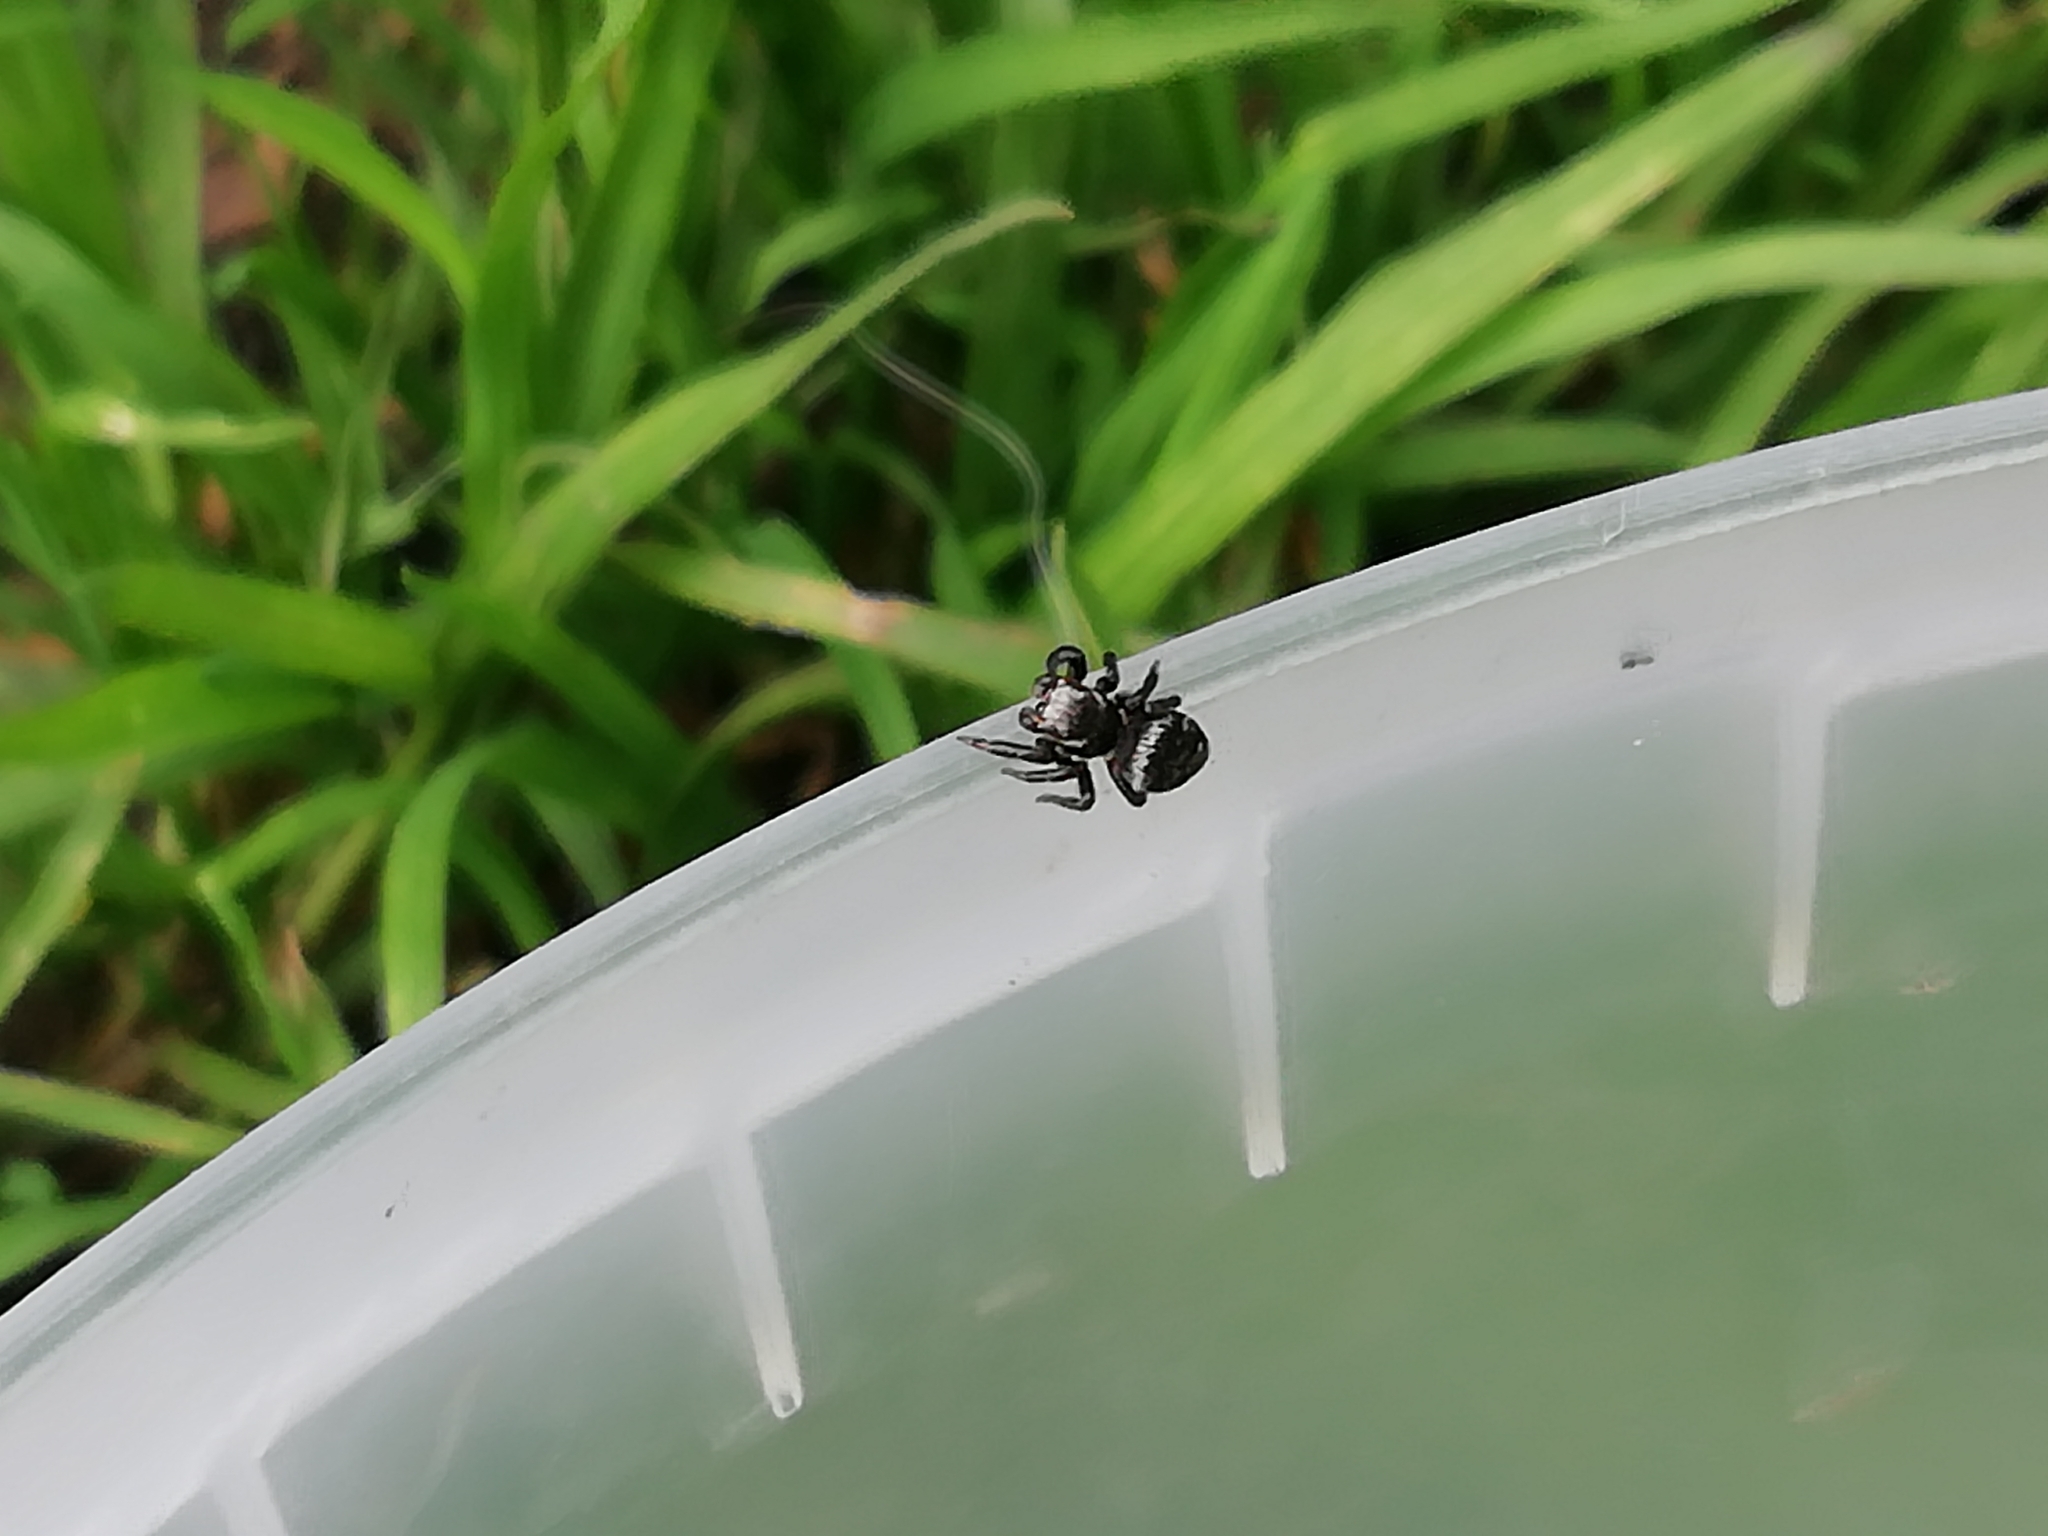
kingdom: Animalia
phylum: Arthropoda
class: Arachnida
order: Araneae
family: Salticidae
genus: Evarcha
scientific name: Evarcha arcuata
